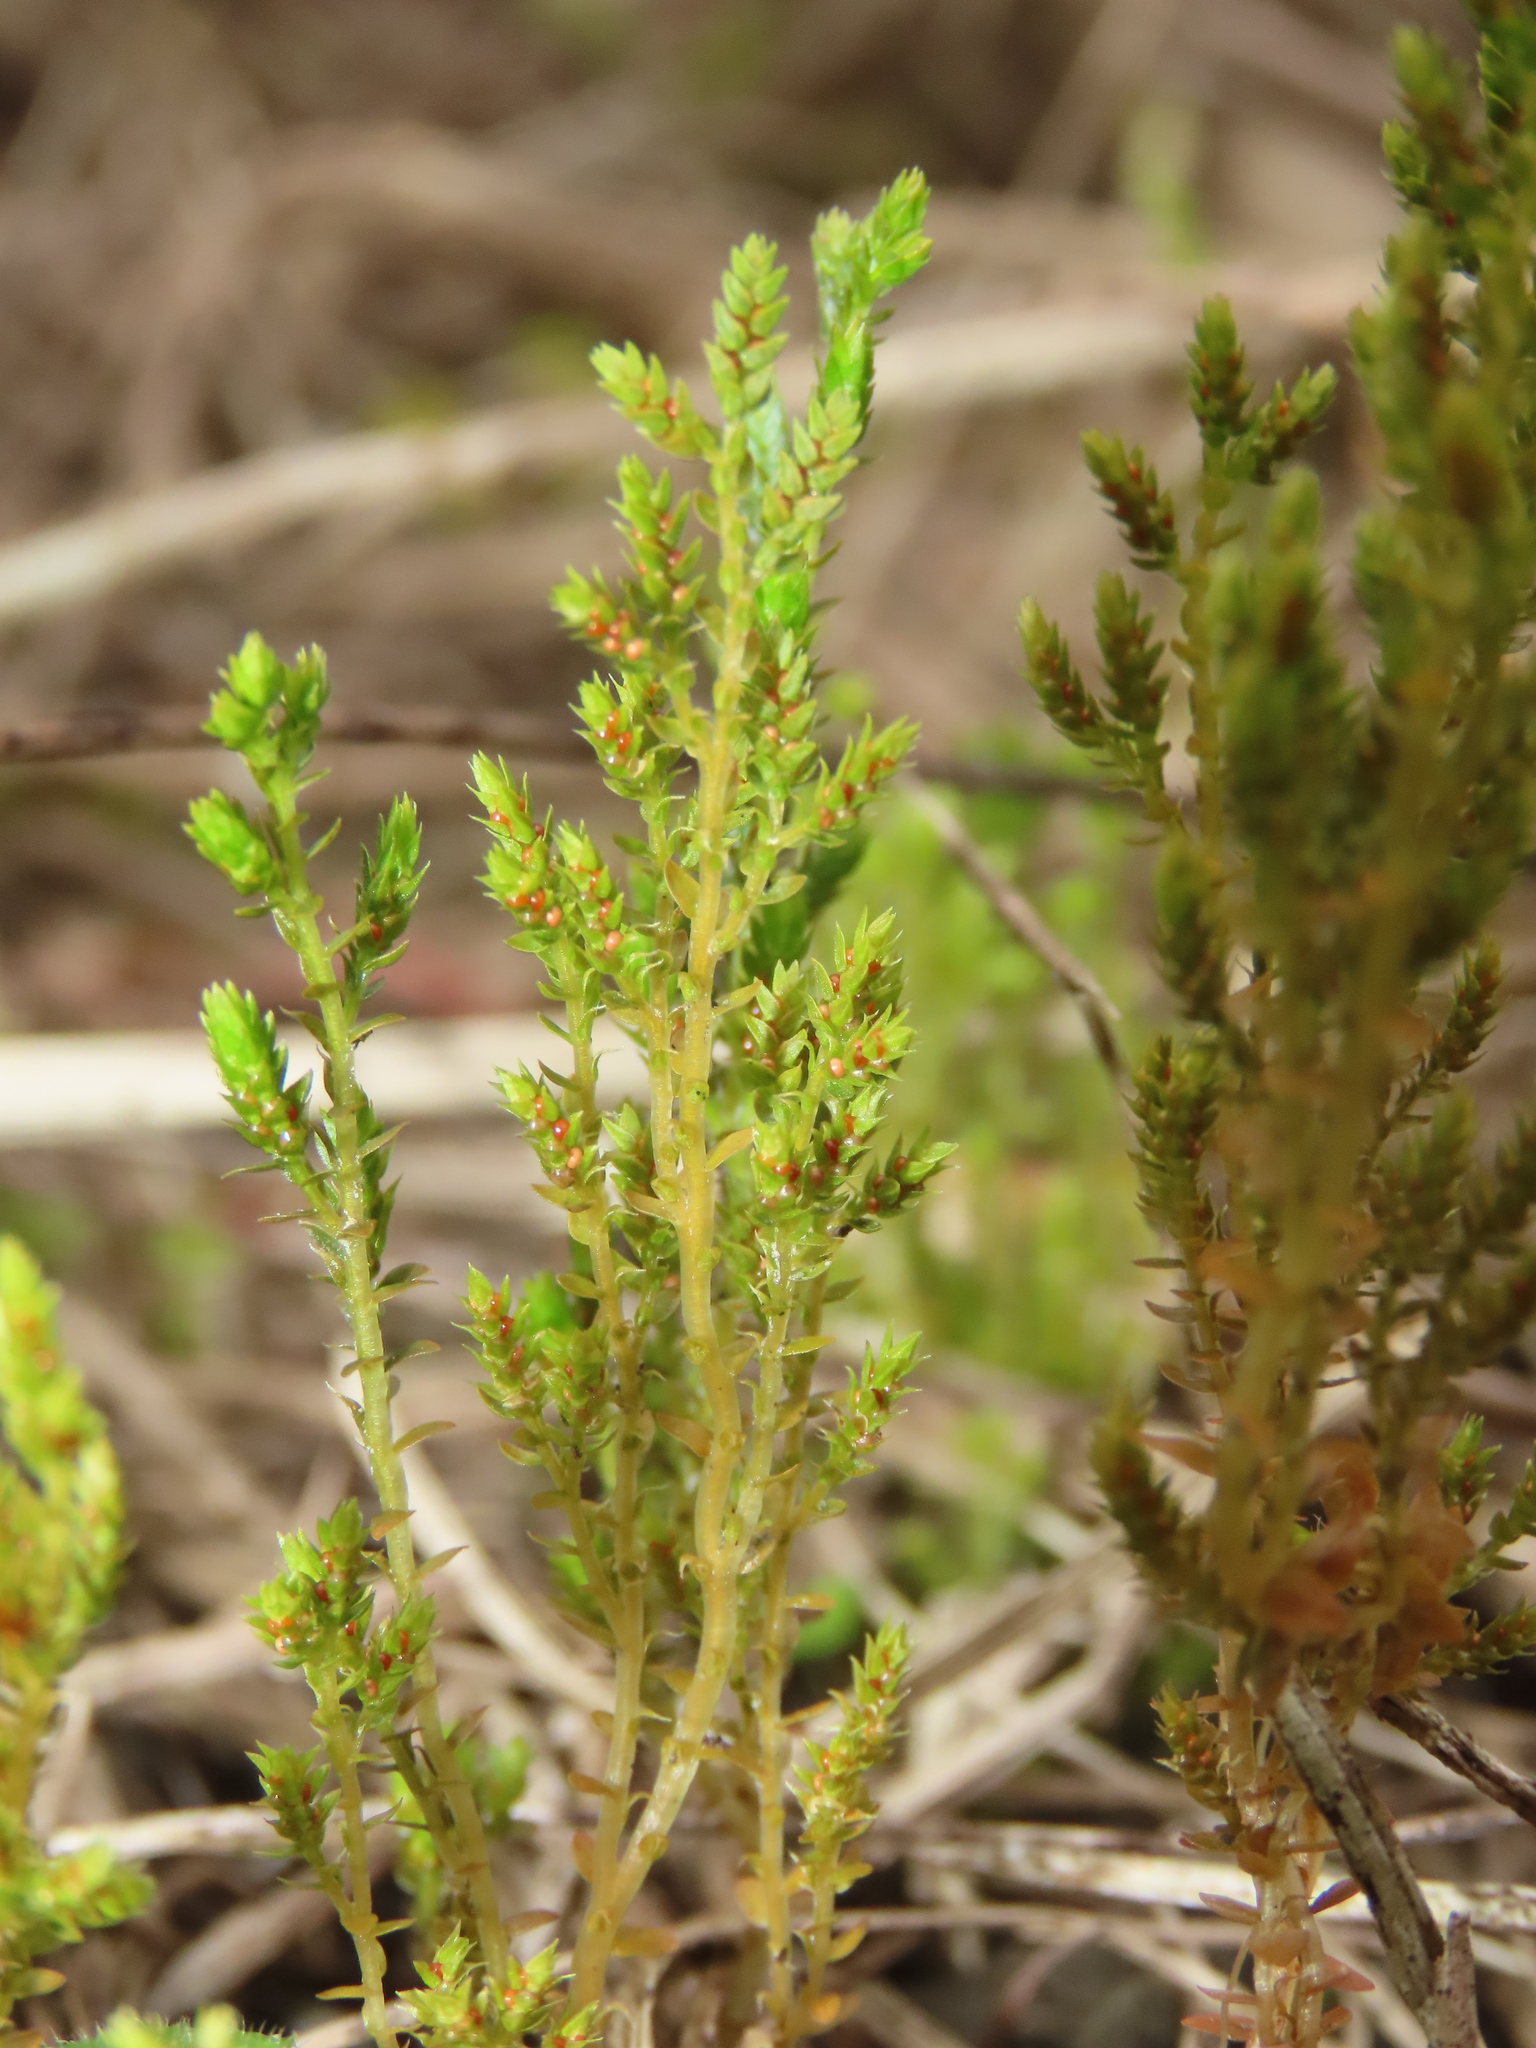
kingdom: Plantae
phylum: Tracheophyta
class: Lycopodiopsida
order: Selaginellales
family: Selaginellaceae
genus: Selaginella
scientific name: Selaginella aristata
